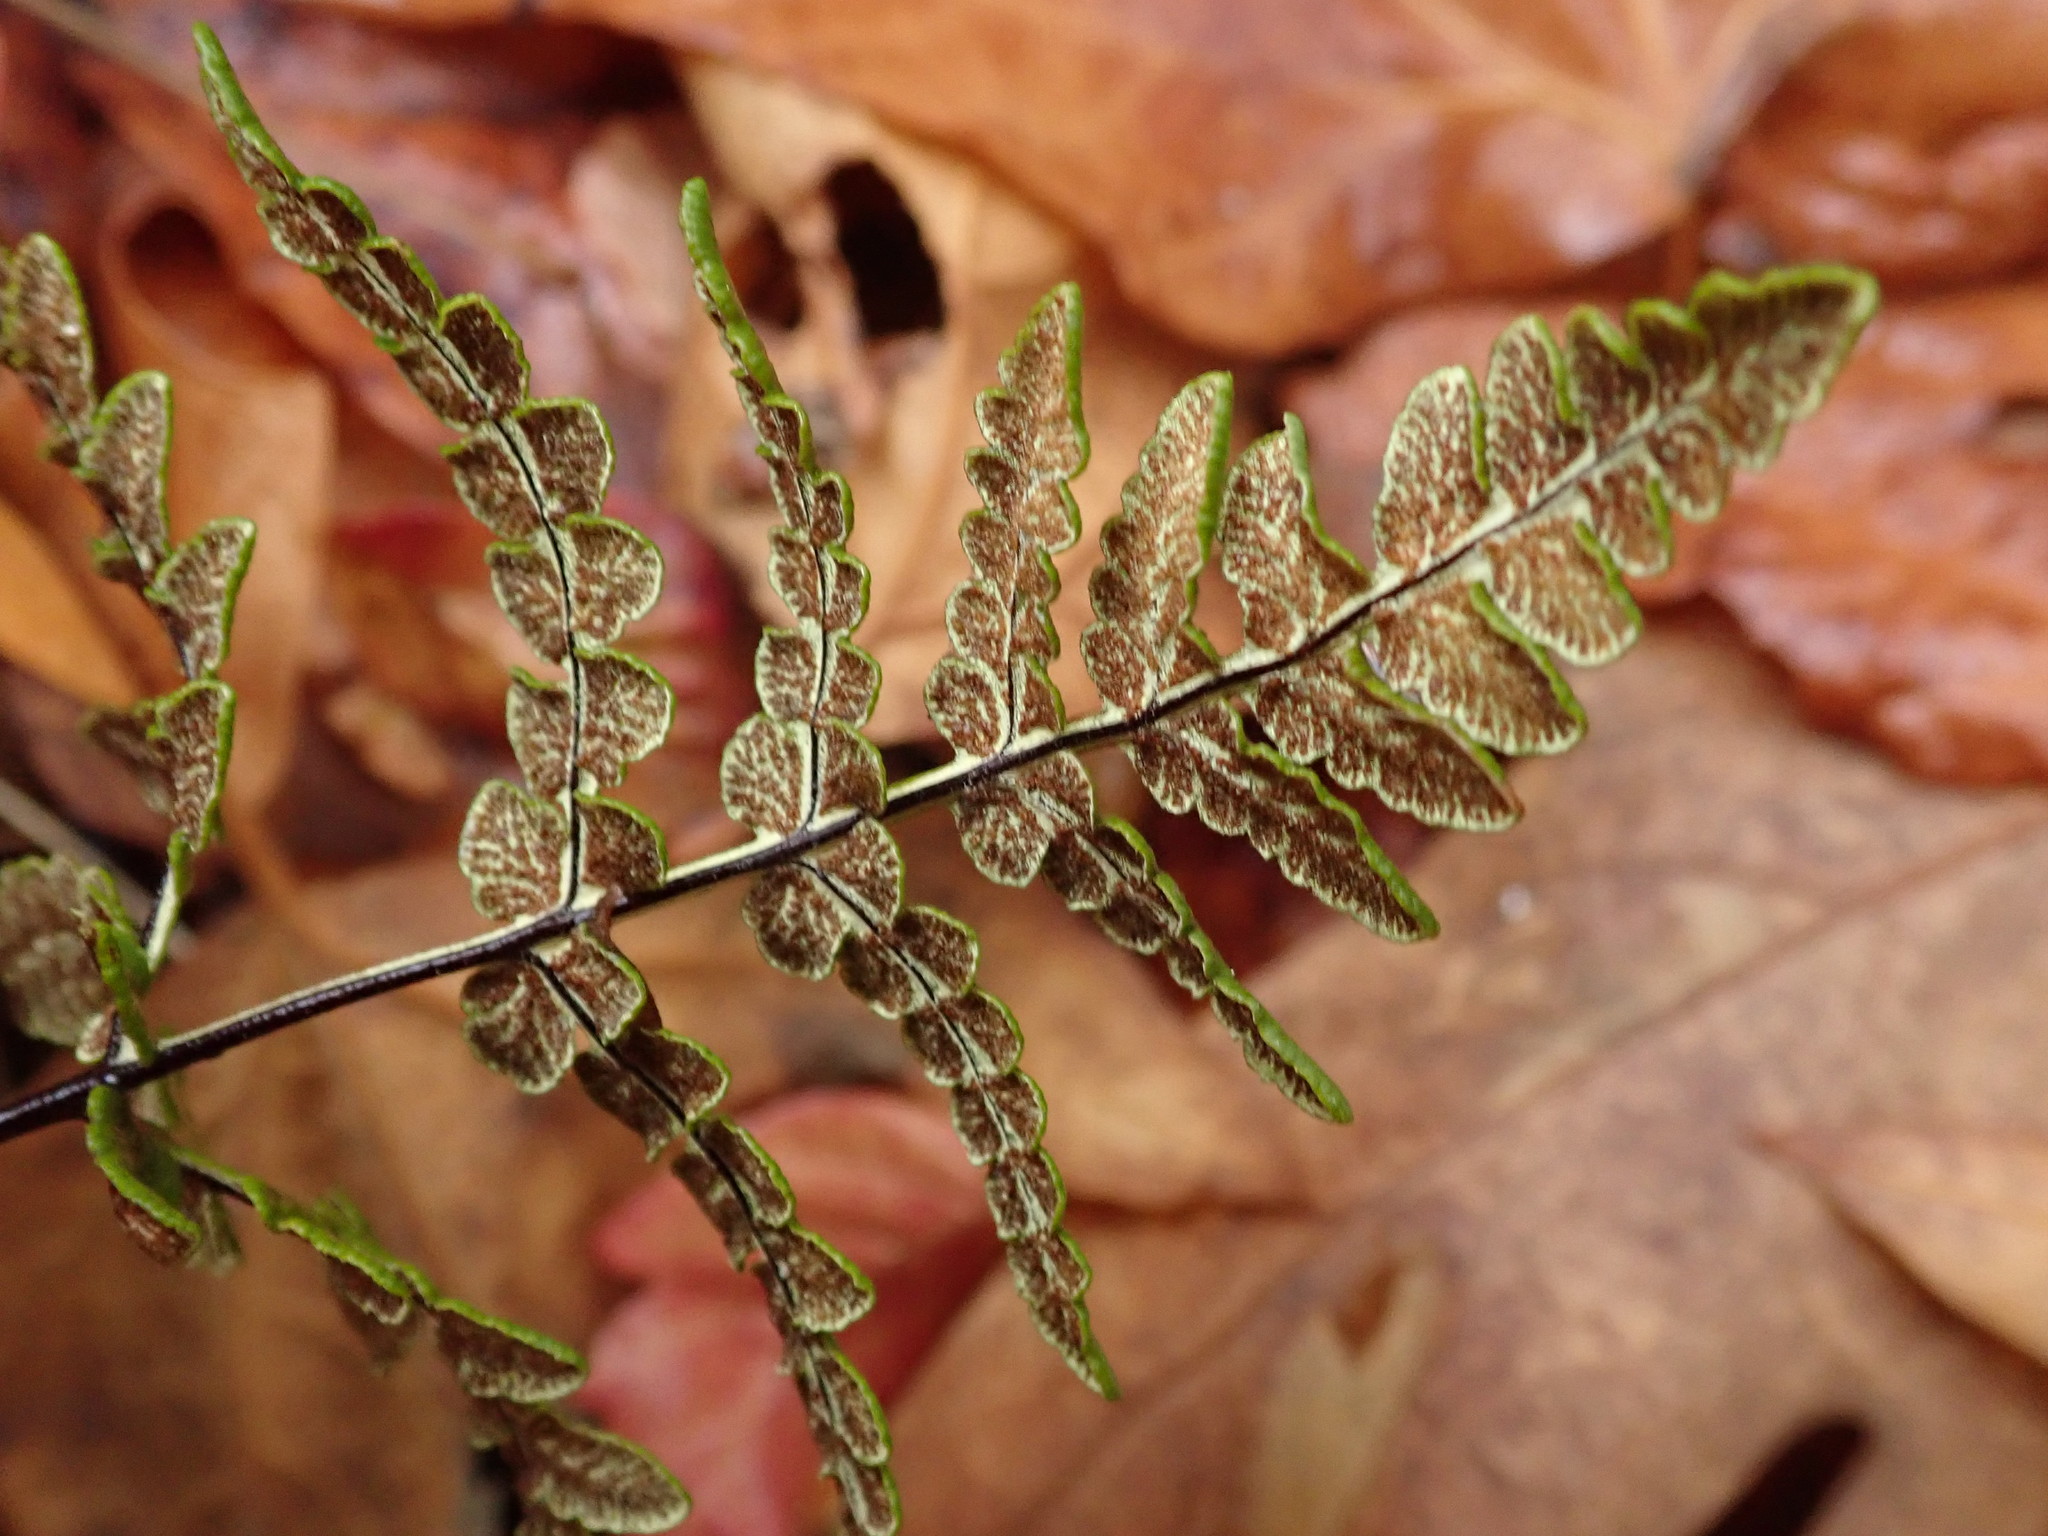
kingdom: Plantae
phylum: Tracheophyta
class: Polypodiopsida
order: Polypodiales
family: Pteridaceae
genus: Pentagramma
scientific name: Pentagramma triangularis
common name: Gold fern
